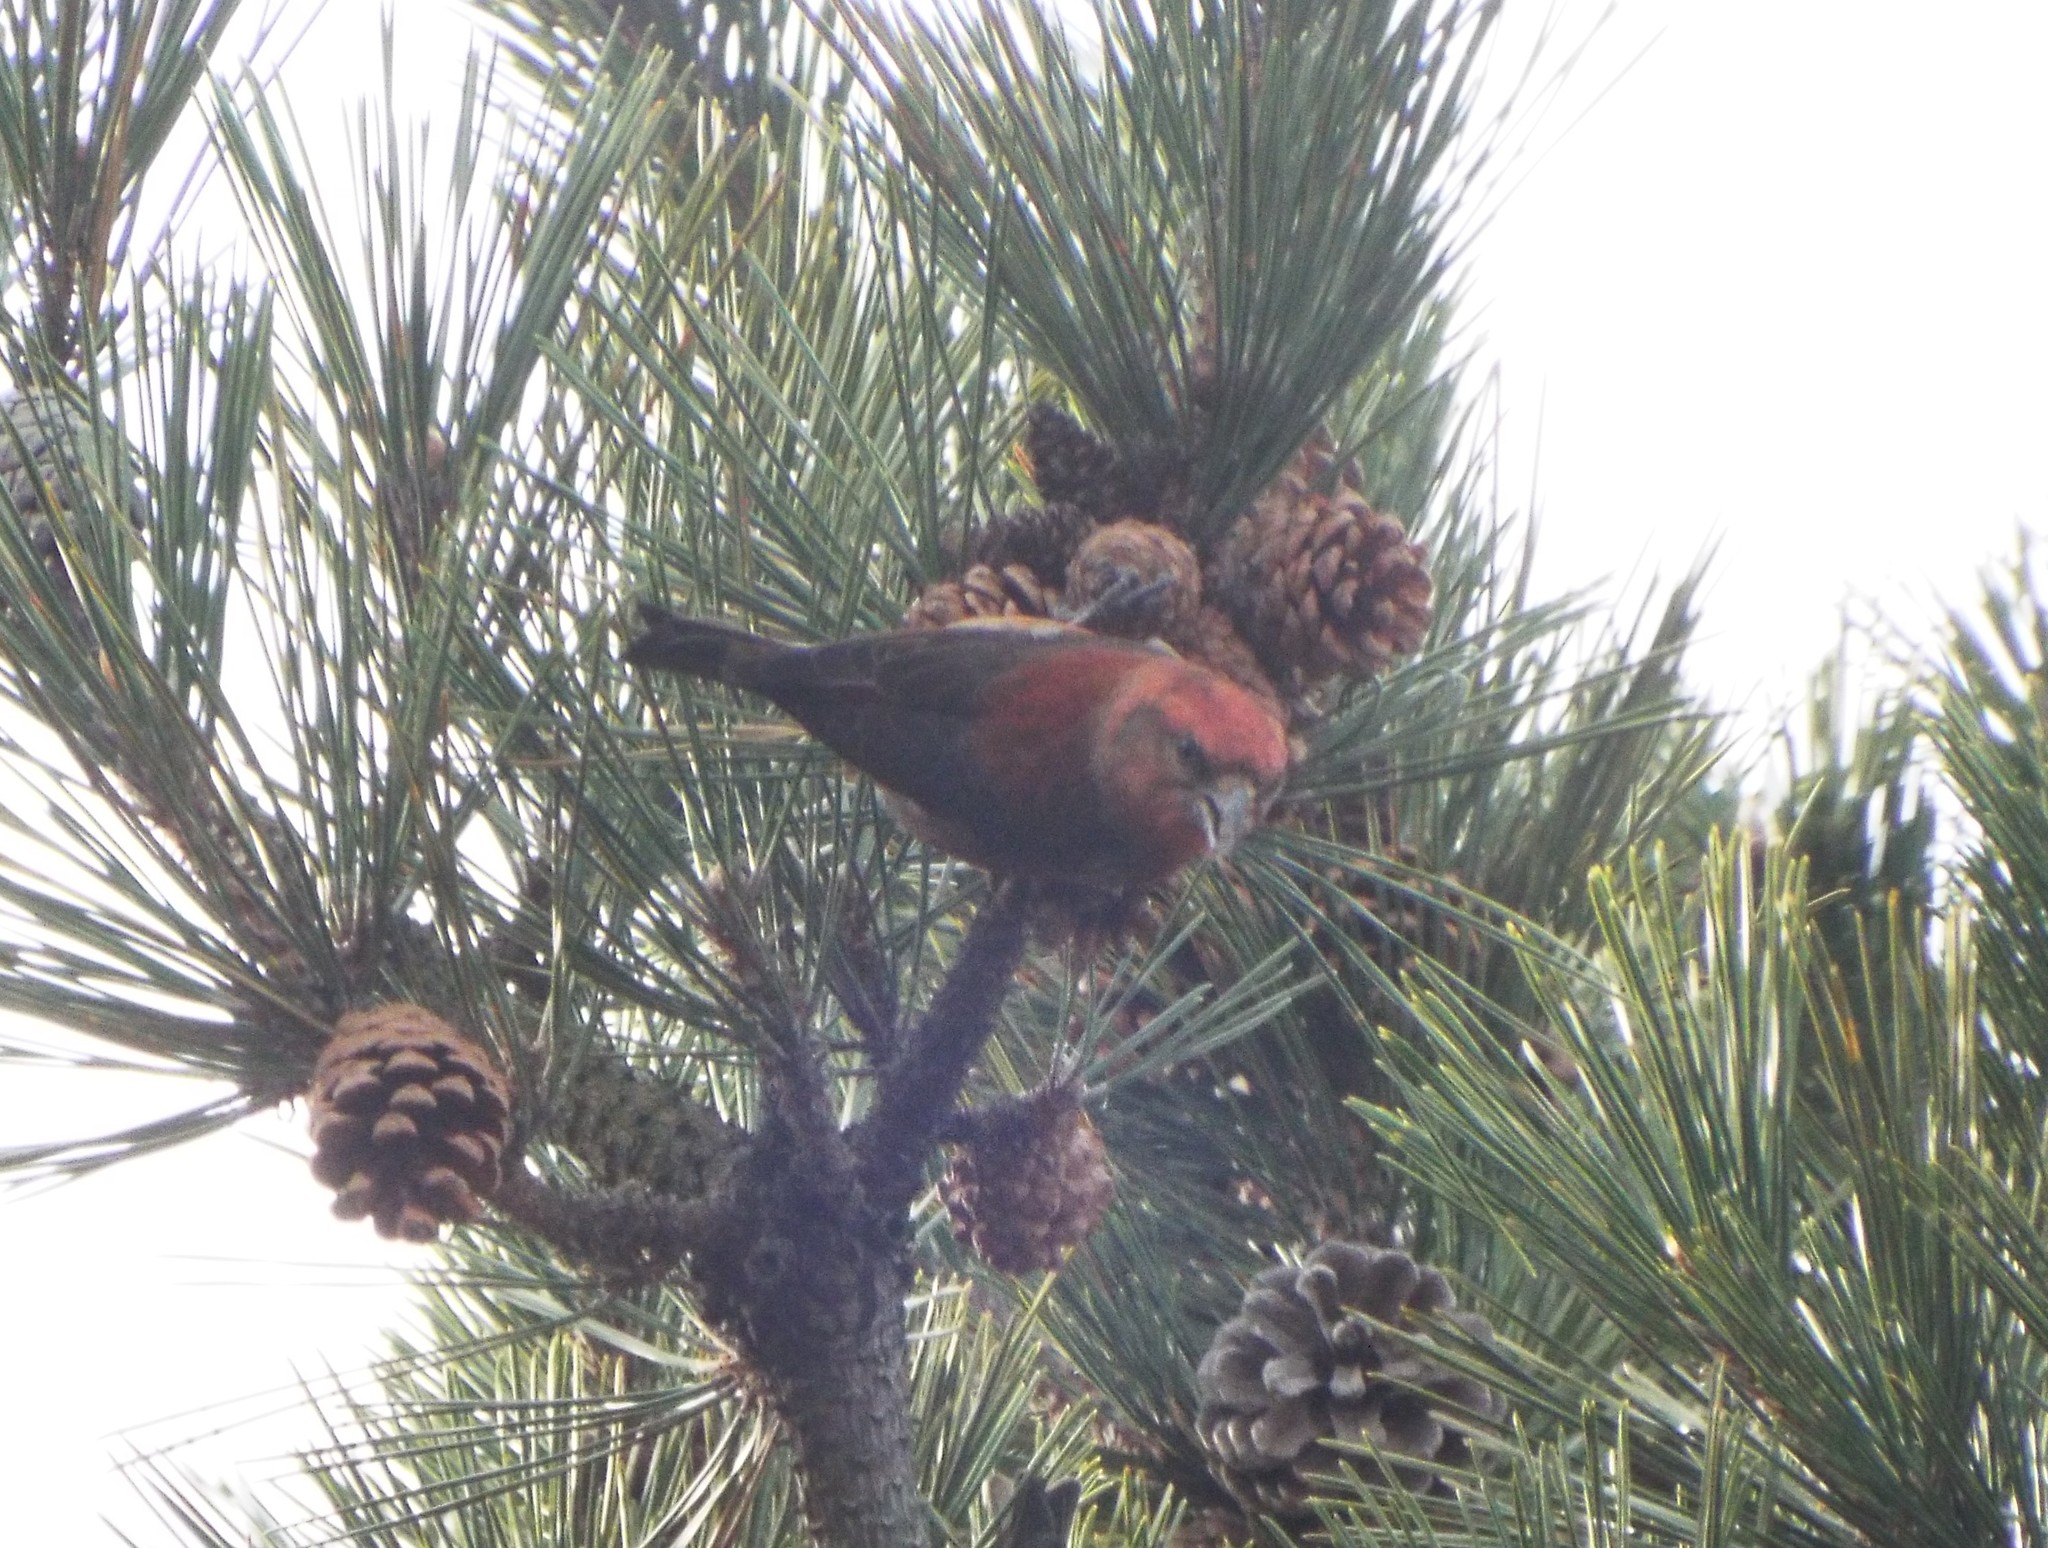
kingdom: Animalia
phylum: Chordata
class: Aves
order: Passeriformes
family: Fringillidae
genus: Loxia
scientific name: Loxia curvirostra
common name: Red crossbill
